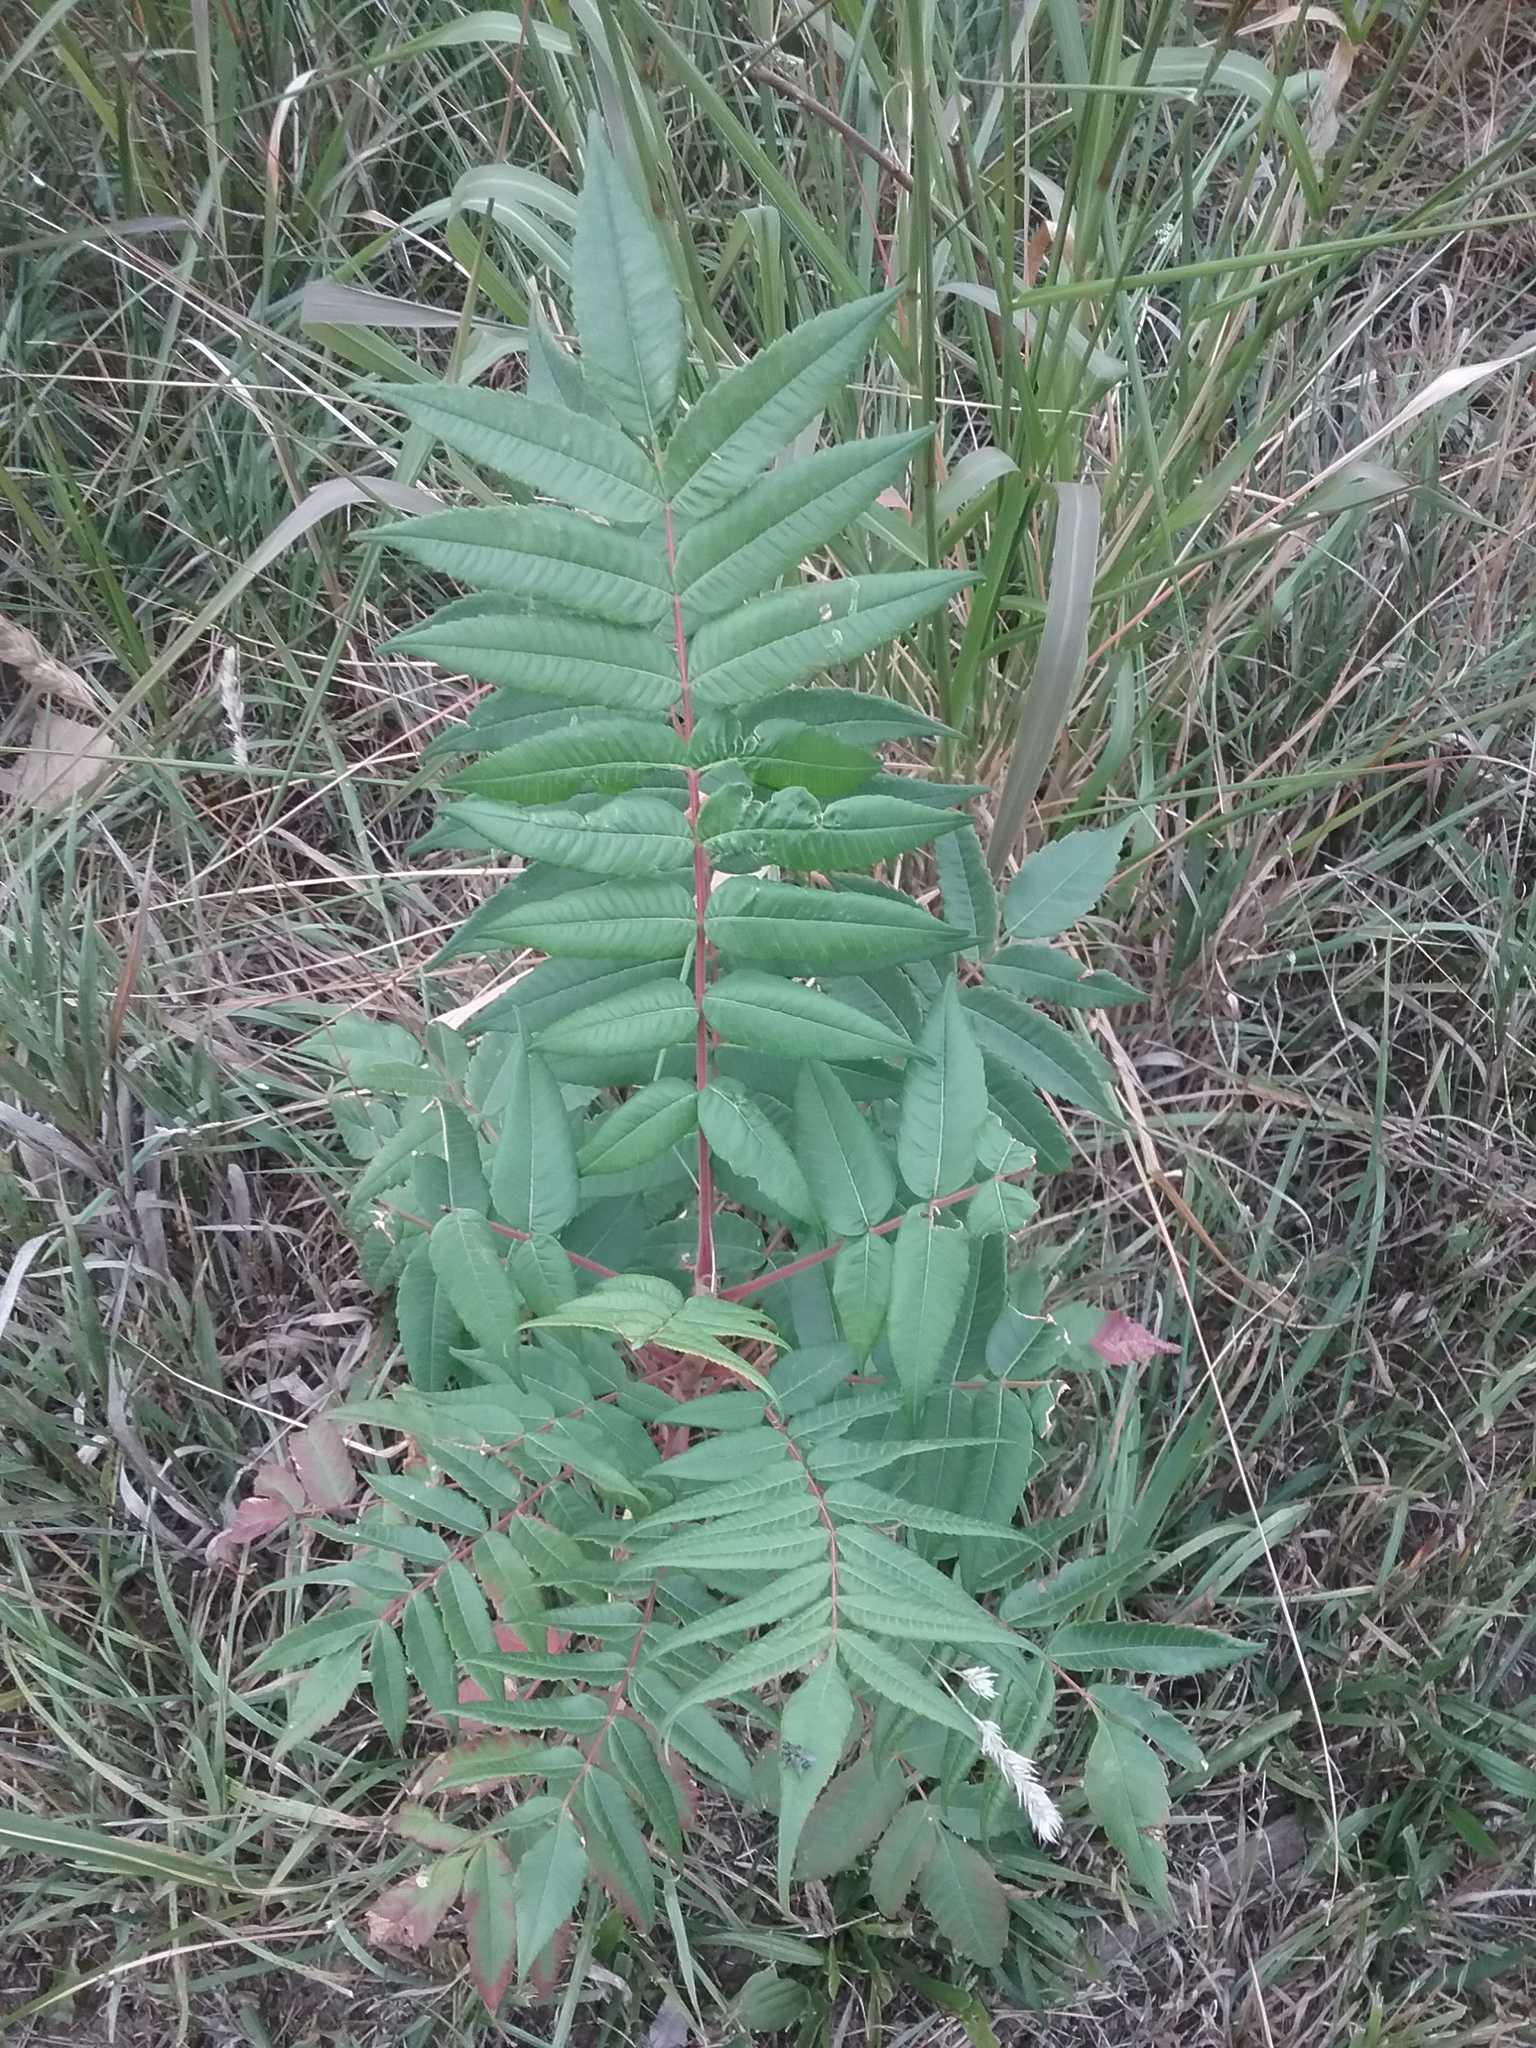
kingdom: Plantae
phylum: Tracheophyta
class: Magnoliopsida
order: Sapindales
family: Anacardiaceae
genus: Rhus
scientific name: Rhus typhina
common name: Staghorn sumac
